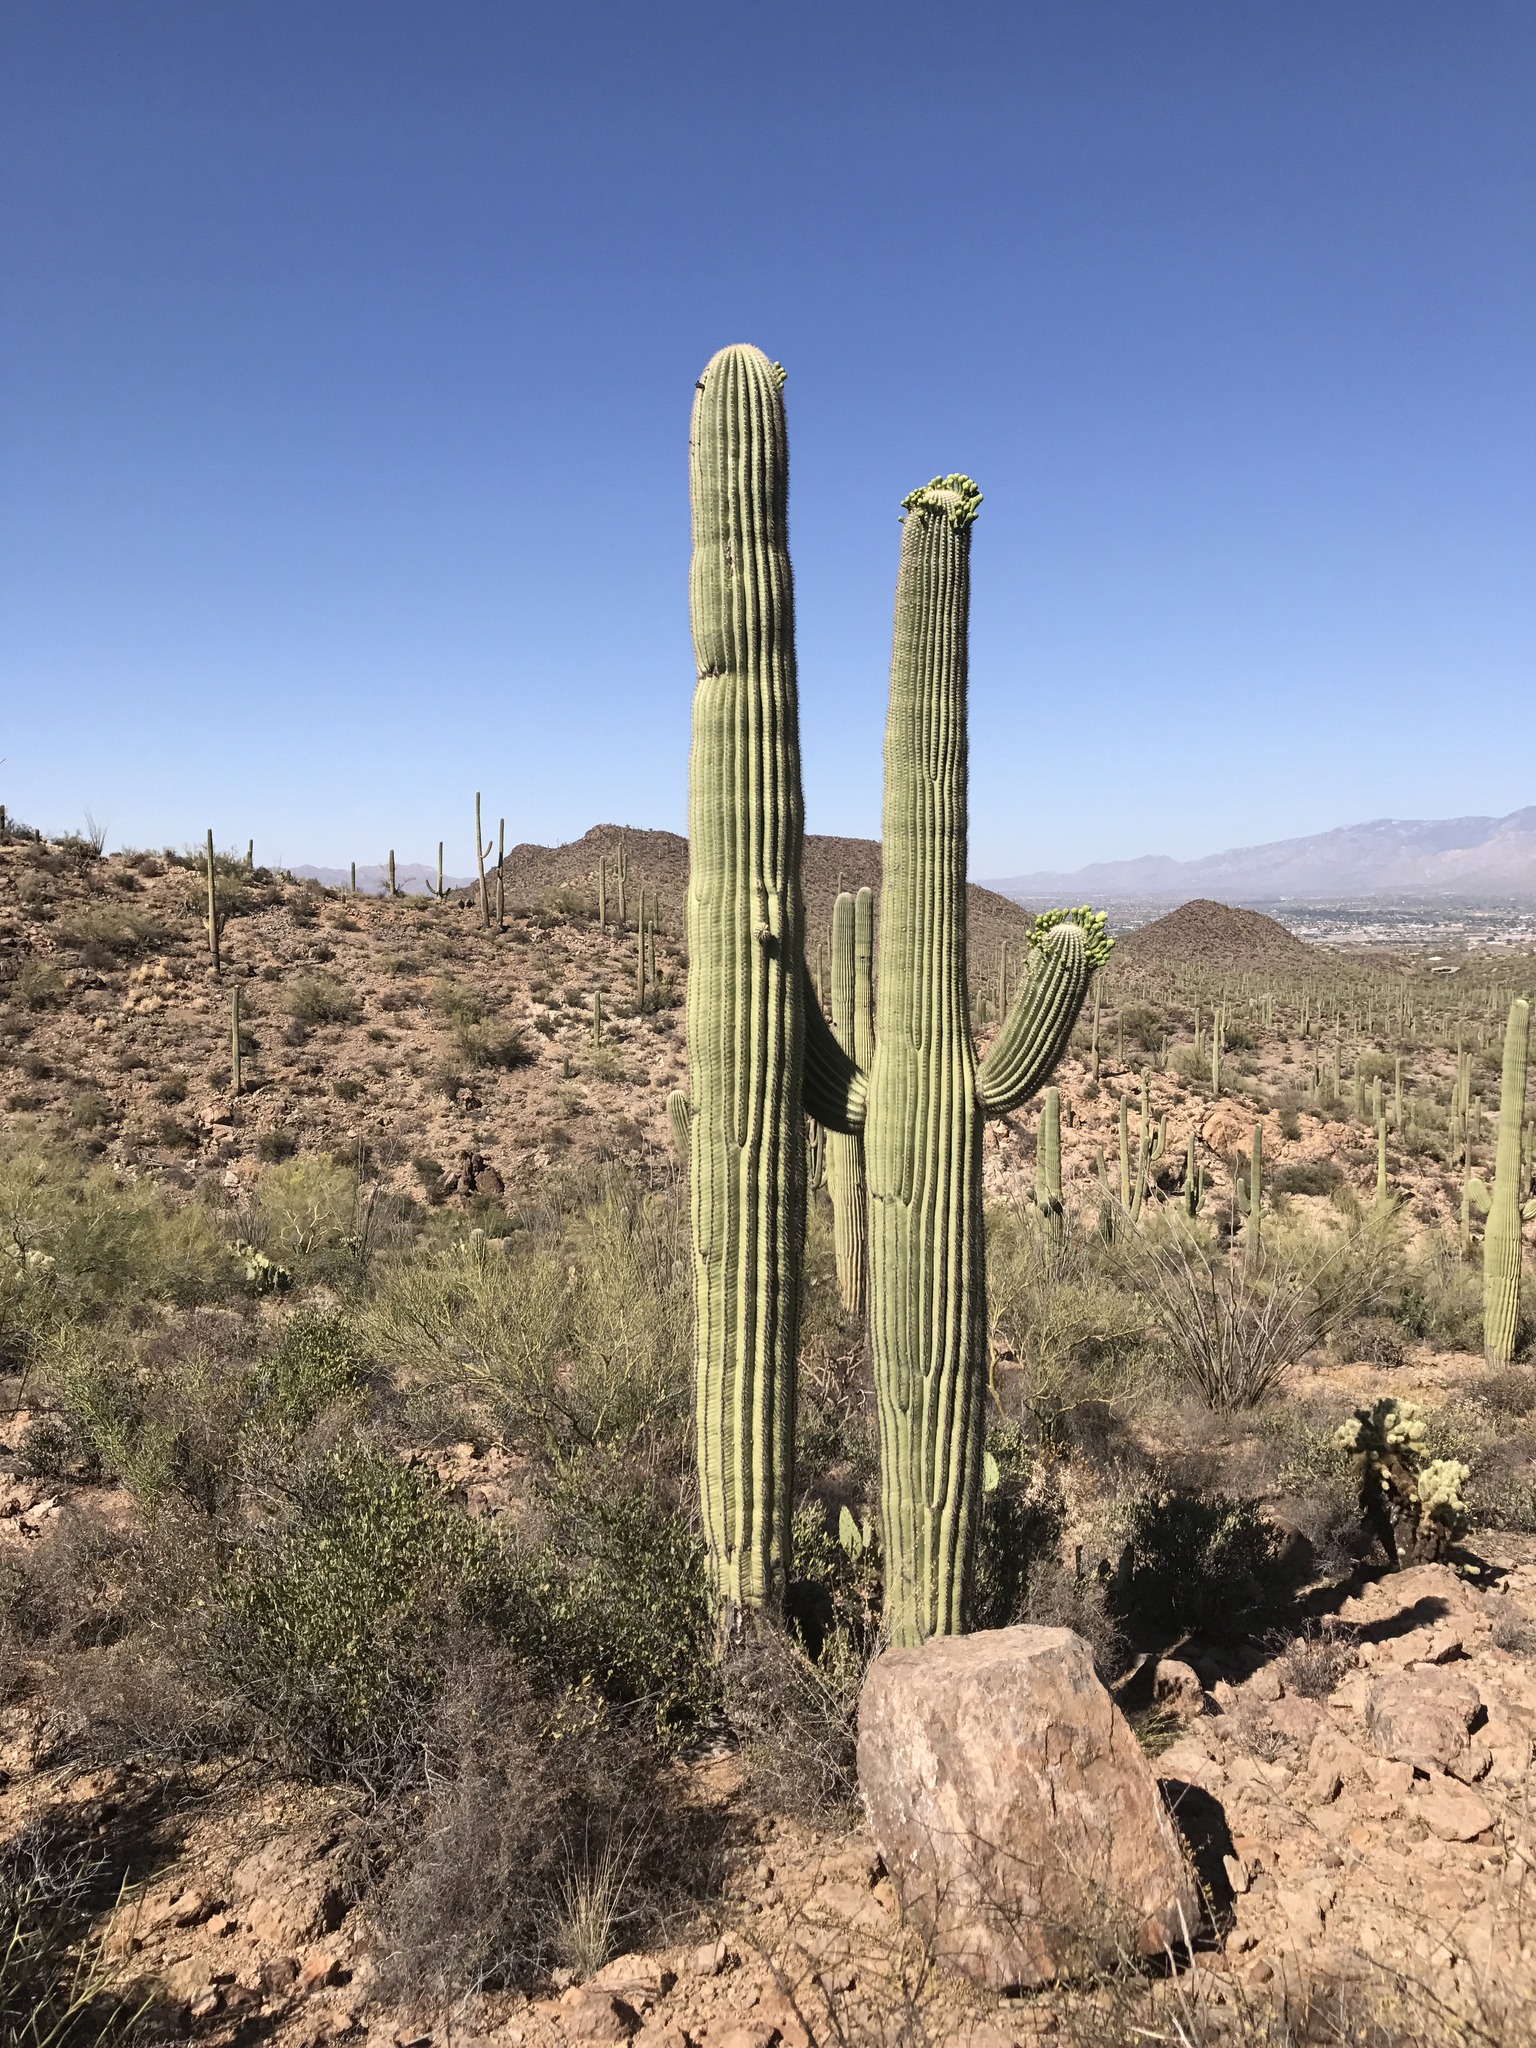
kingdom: Plantae
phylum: Tracheophyta
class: Magnoliopsida
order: Caryophyllales
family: Cactaceae
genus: Carnegiea
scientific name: Carnegiea gigantea
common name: Saguaro
